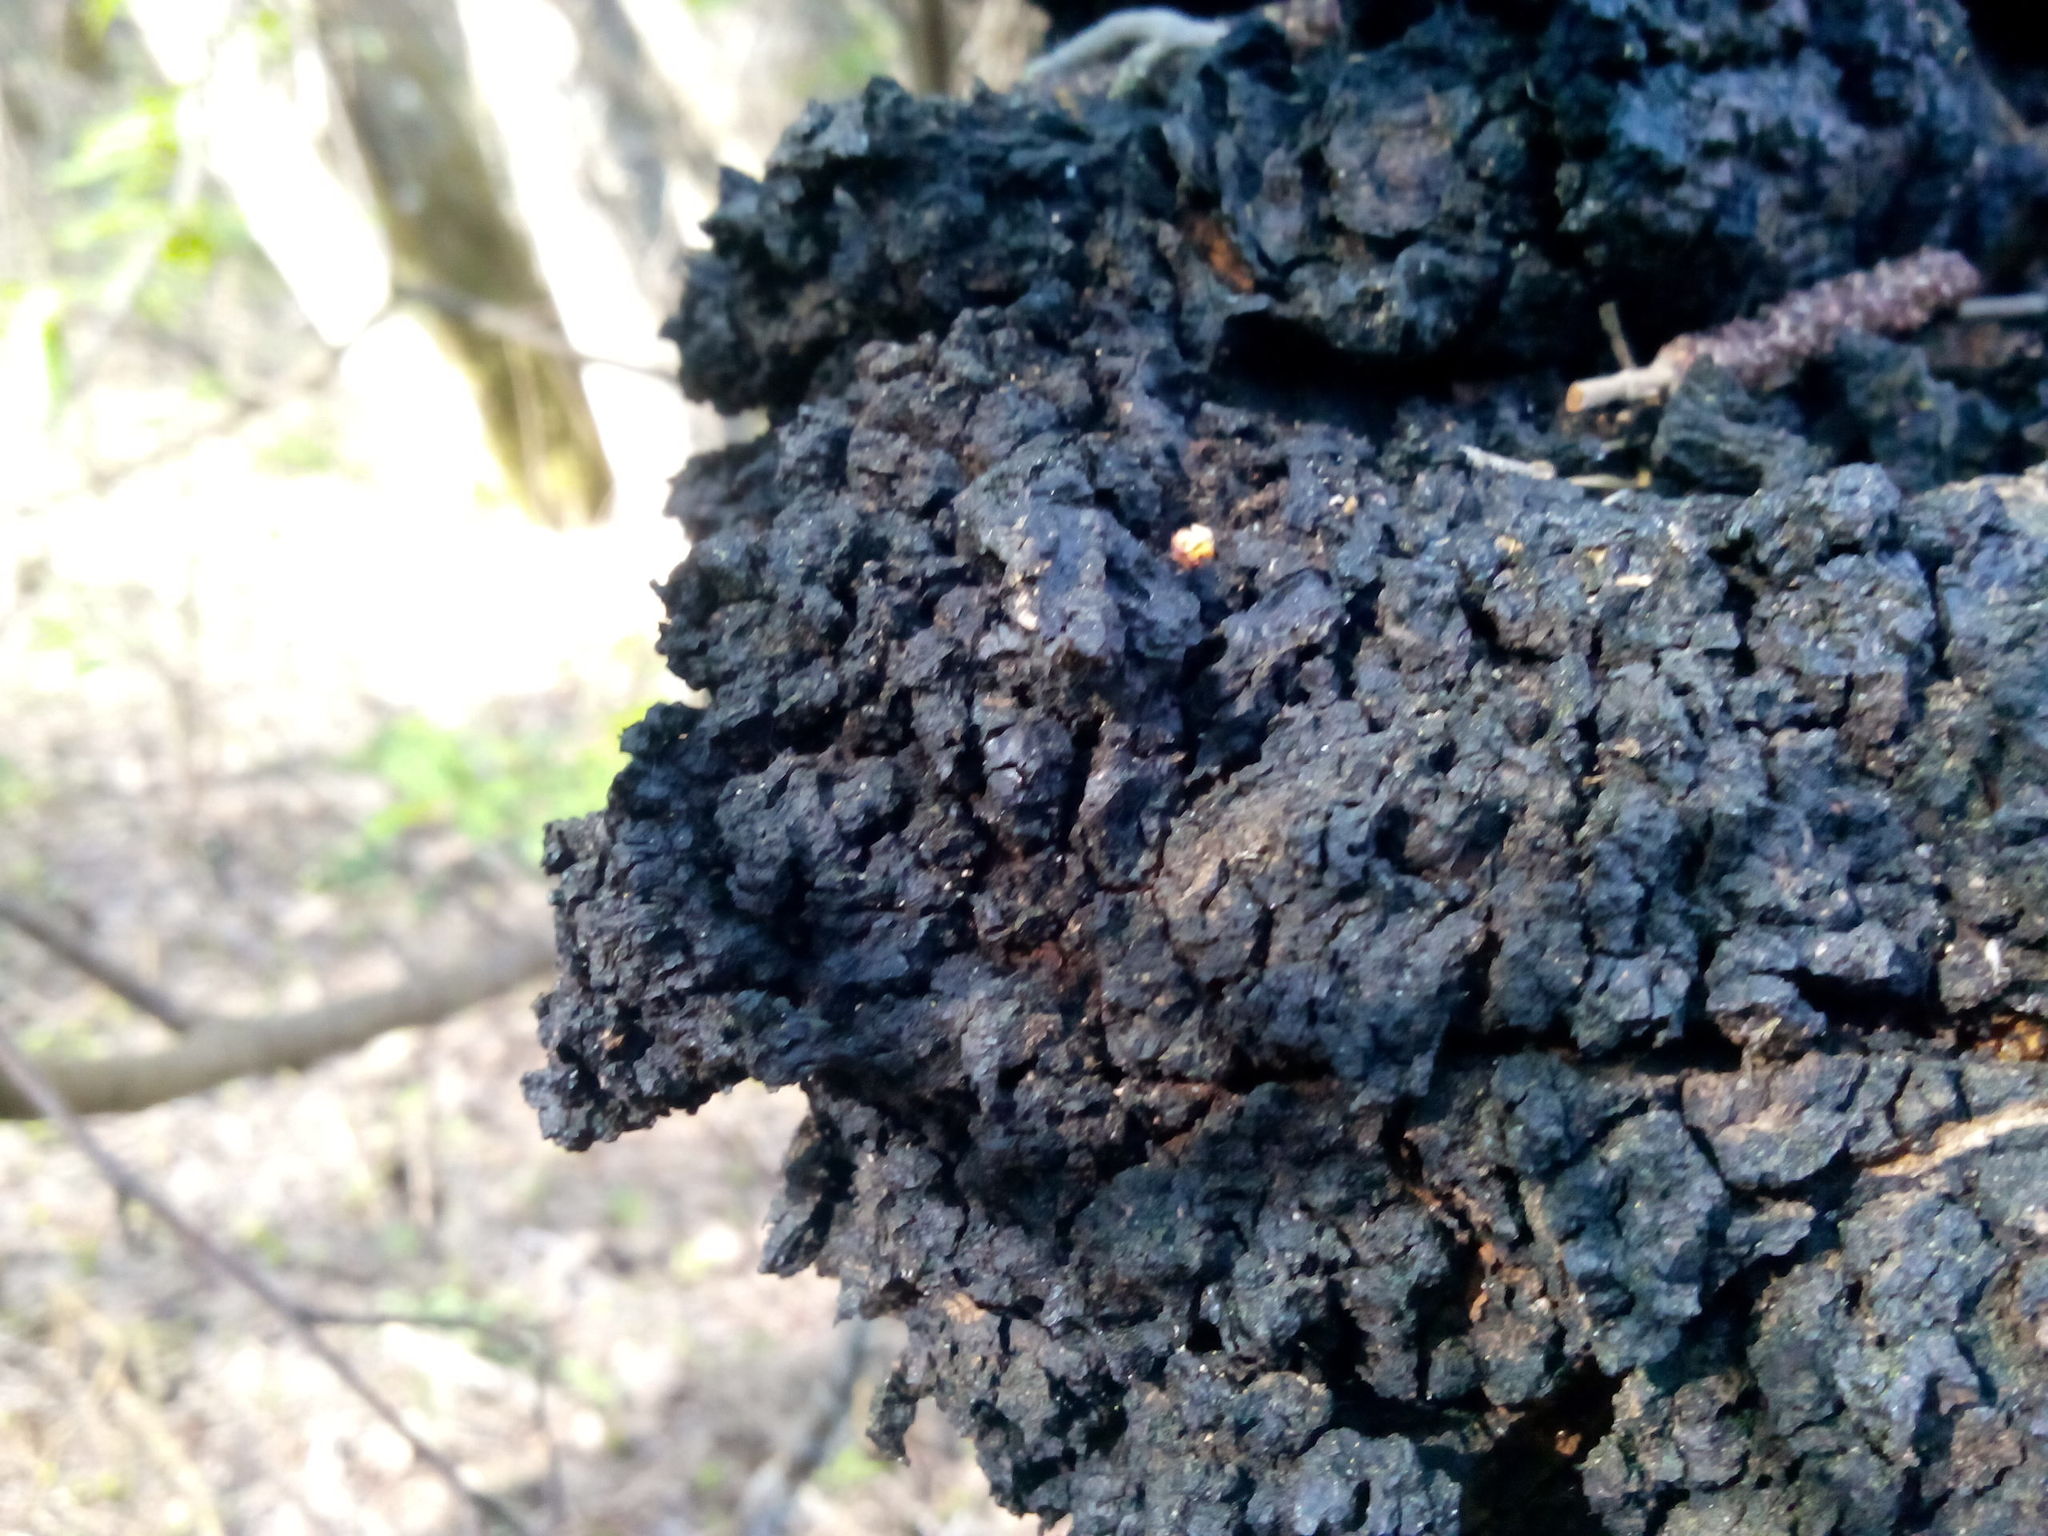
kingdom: Fungi
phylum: Basidiomycota
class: Agaricomycetes
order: Hymenochaetales
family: Hymenochaetaceae
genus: Inonotus
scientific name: Inonotus obliquus
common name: Chaga
